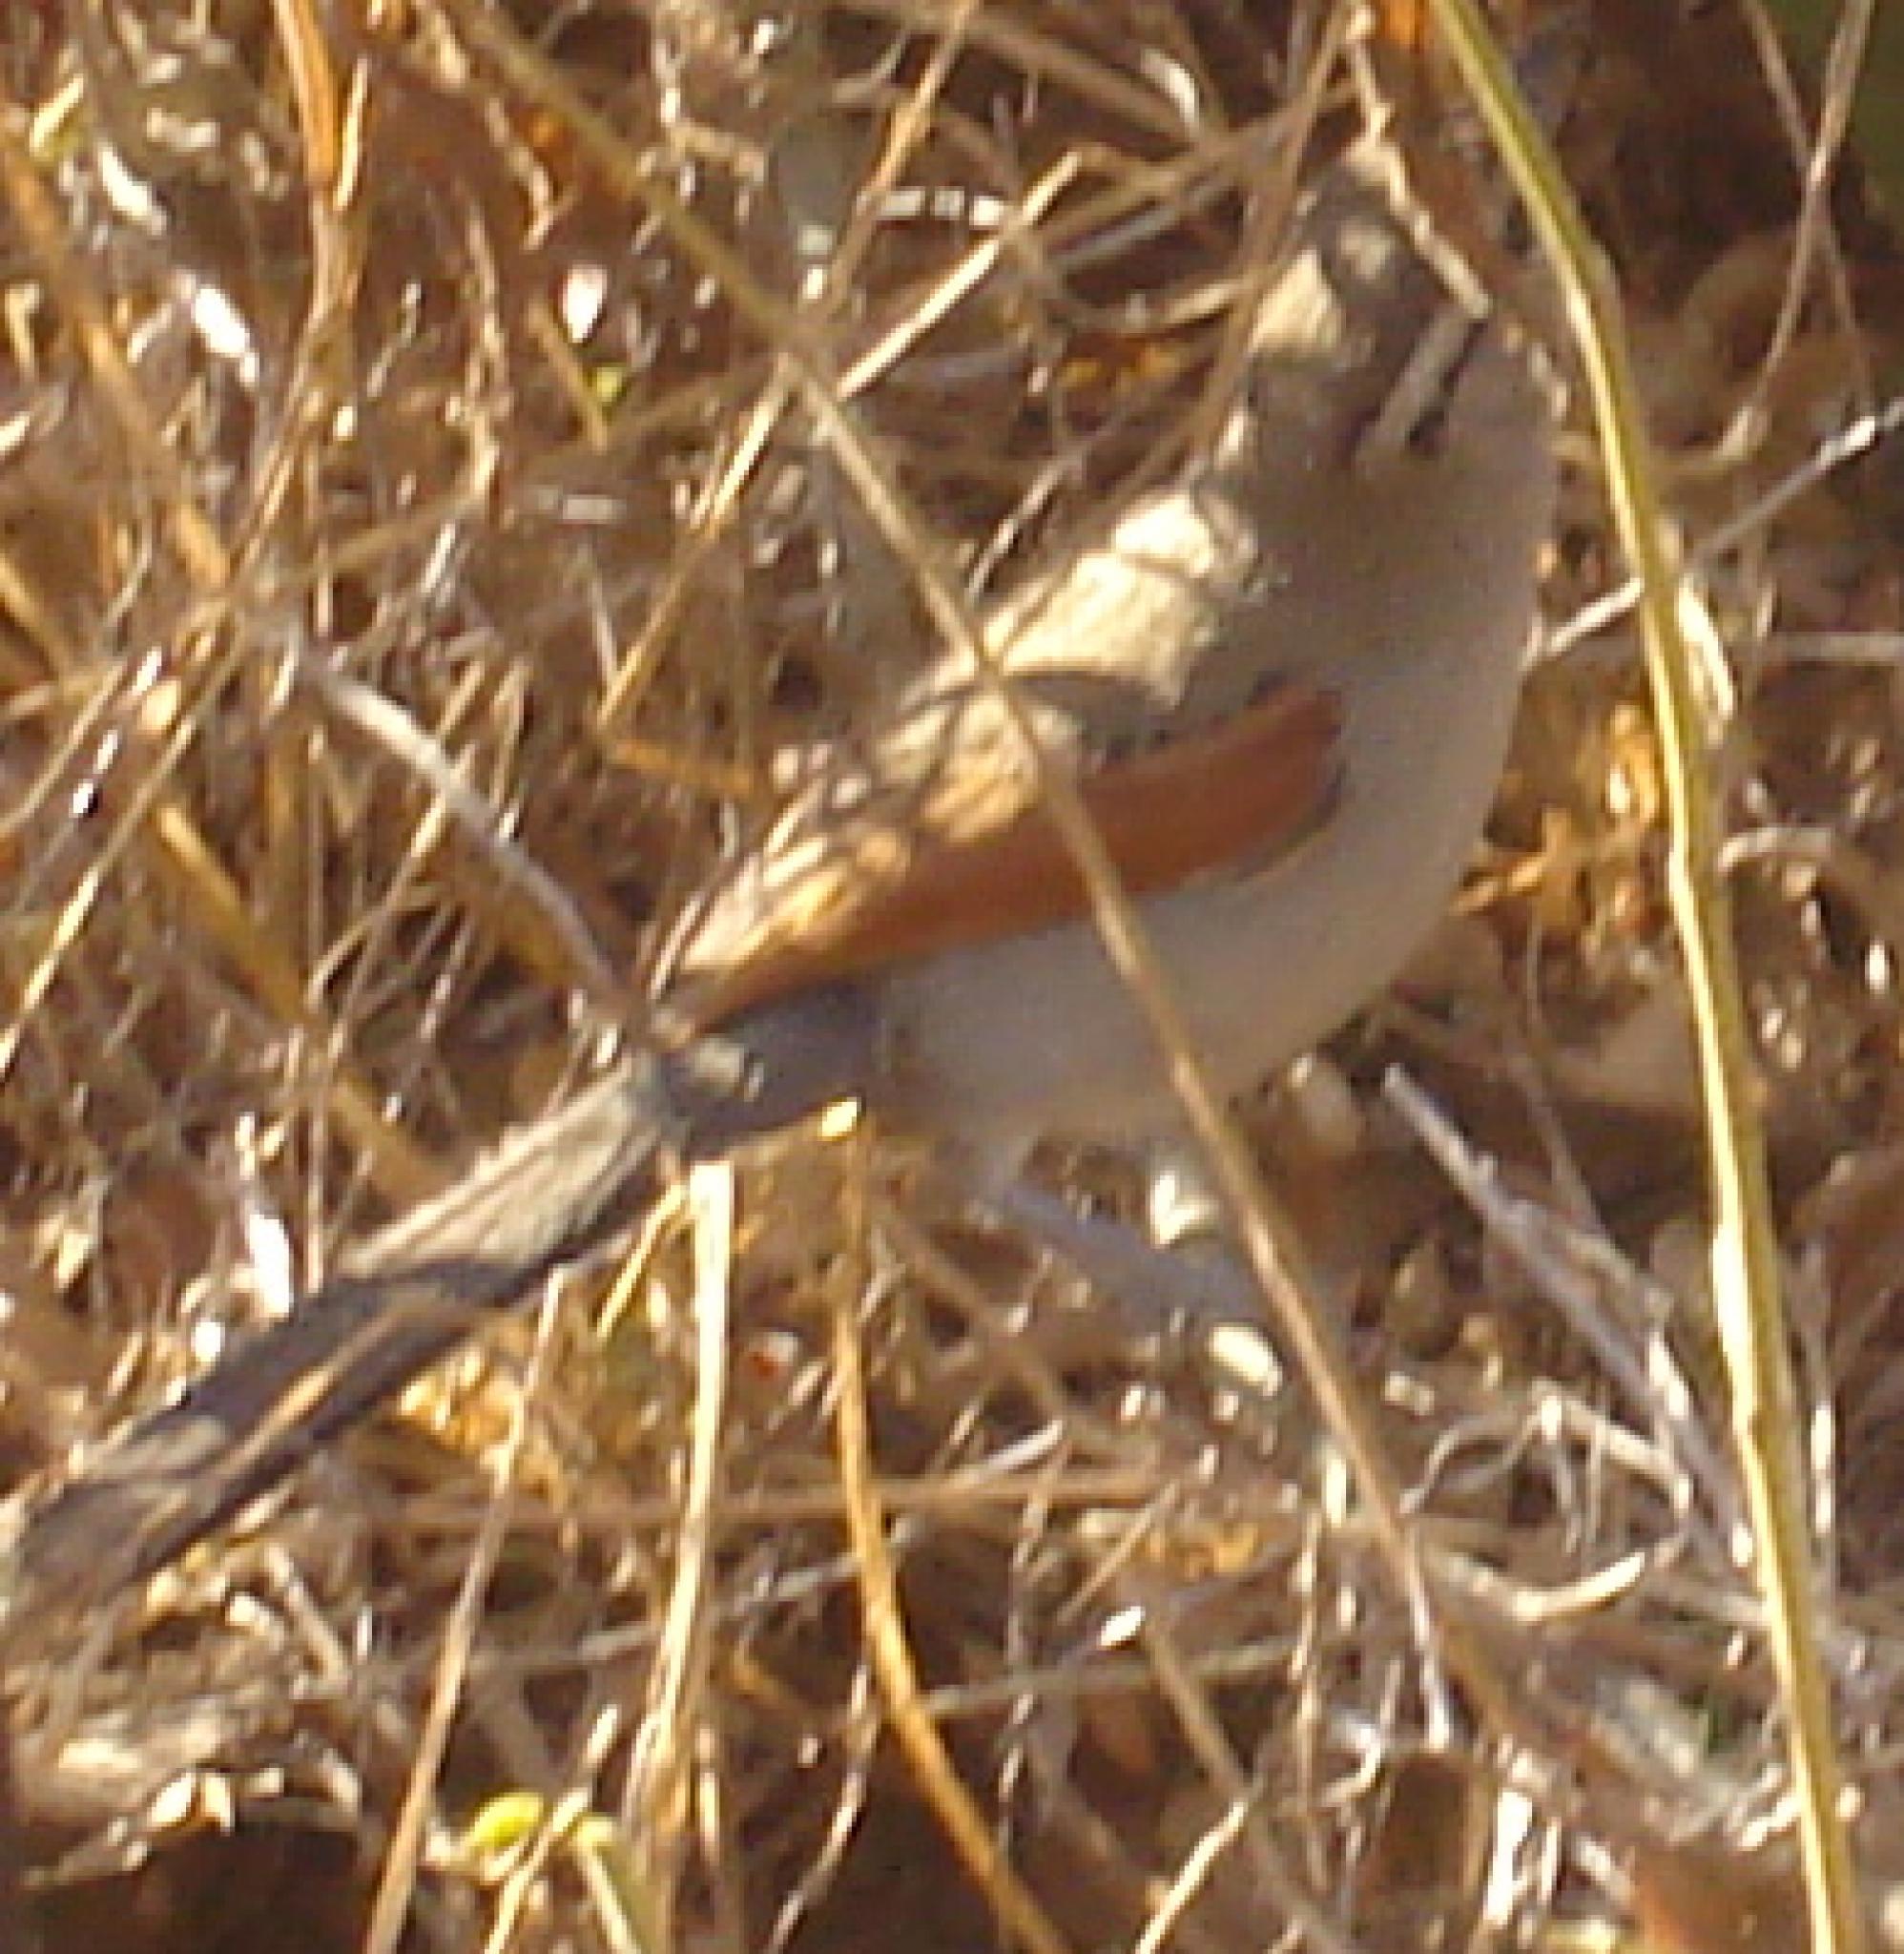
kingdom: Animalia
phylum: Chordata
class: Aves
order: Passeriformes
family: Malaconotidae
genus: Tchagra
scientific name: Tchagra australis
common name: Brown-crowned tchagra
